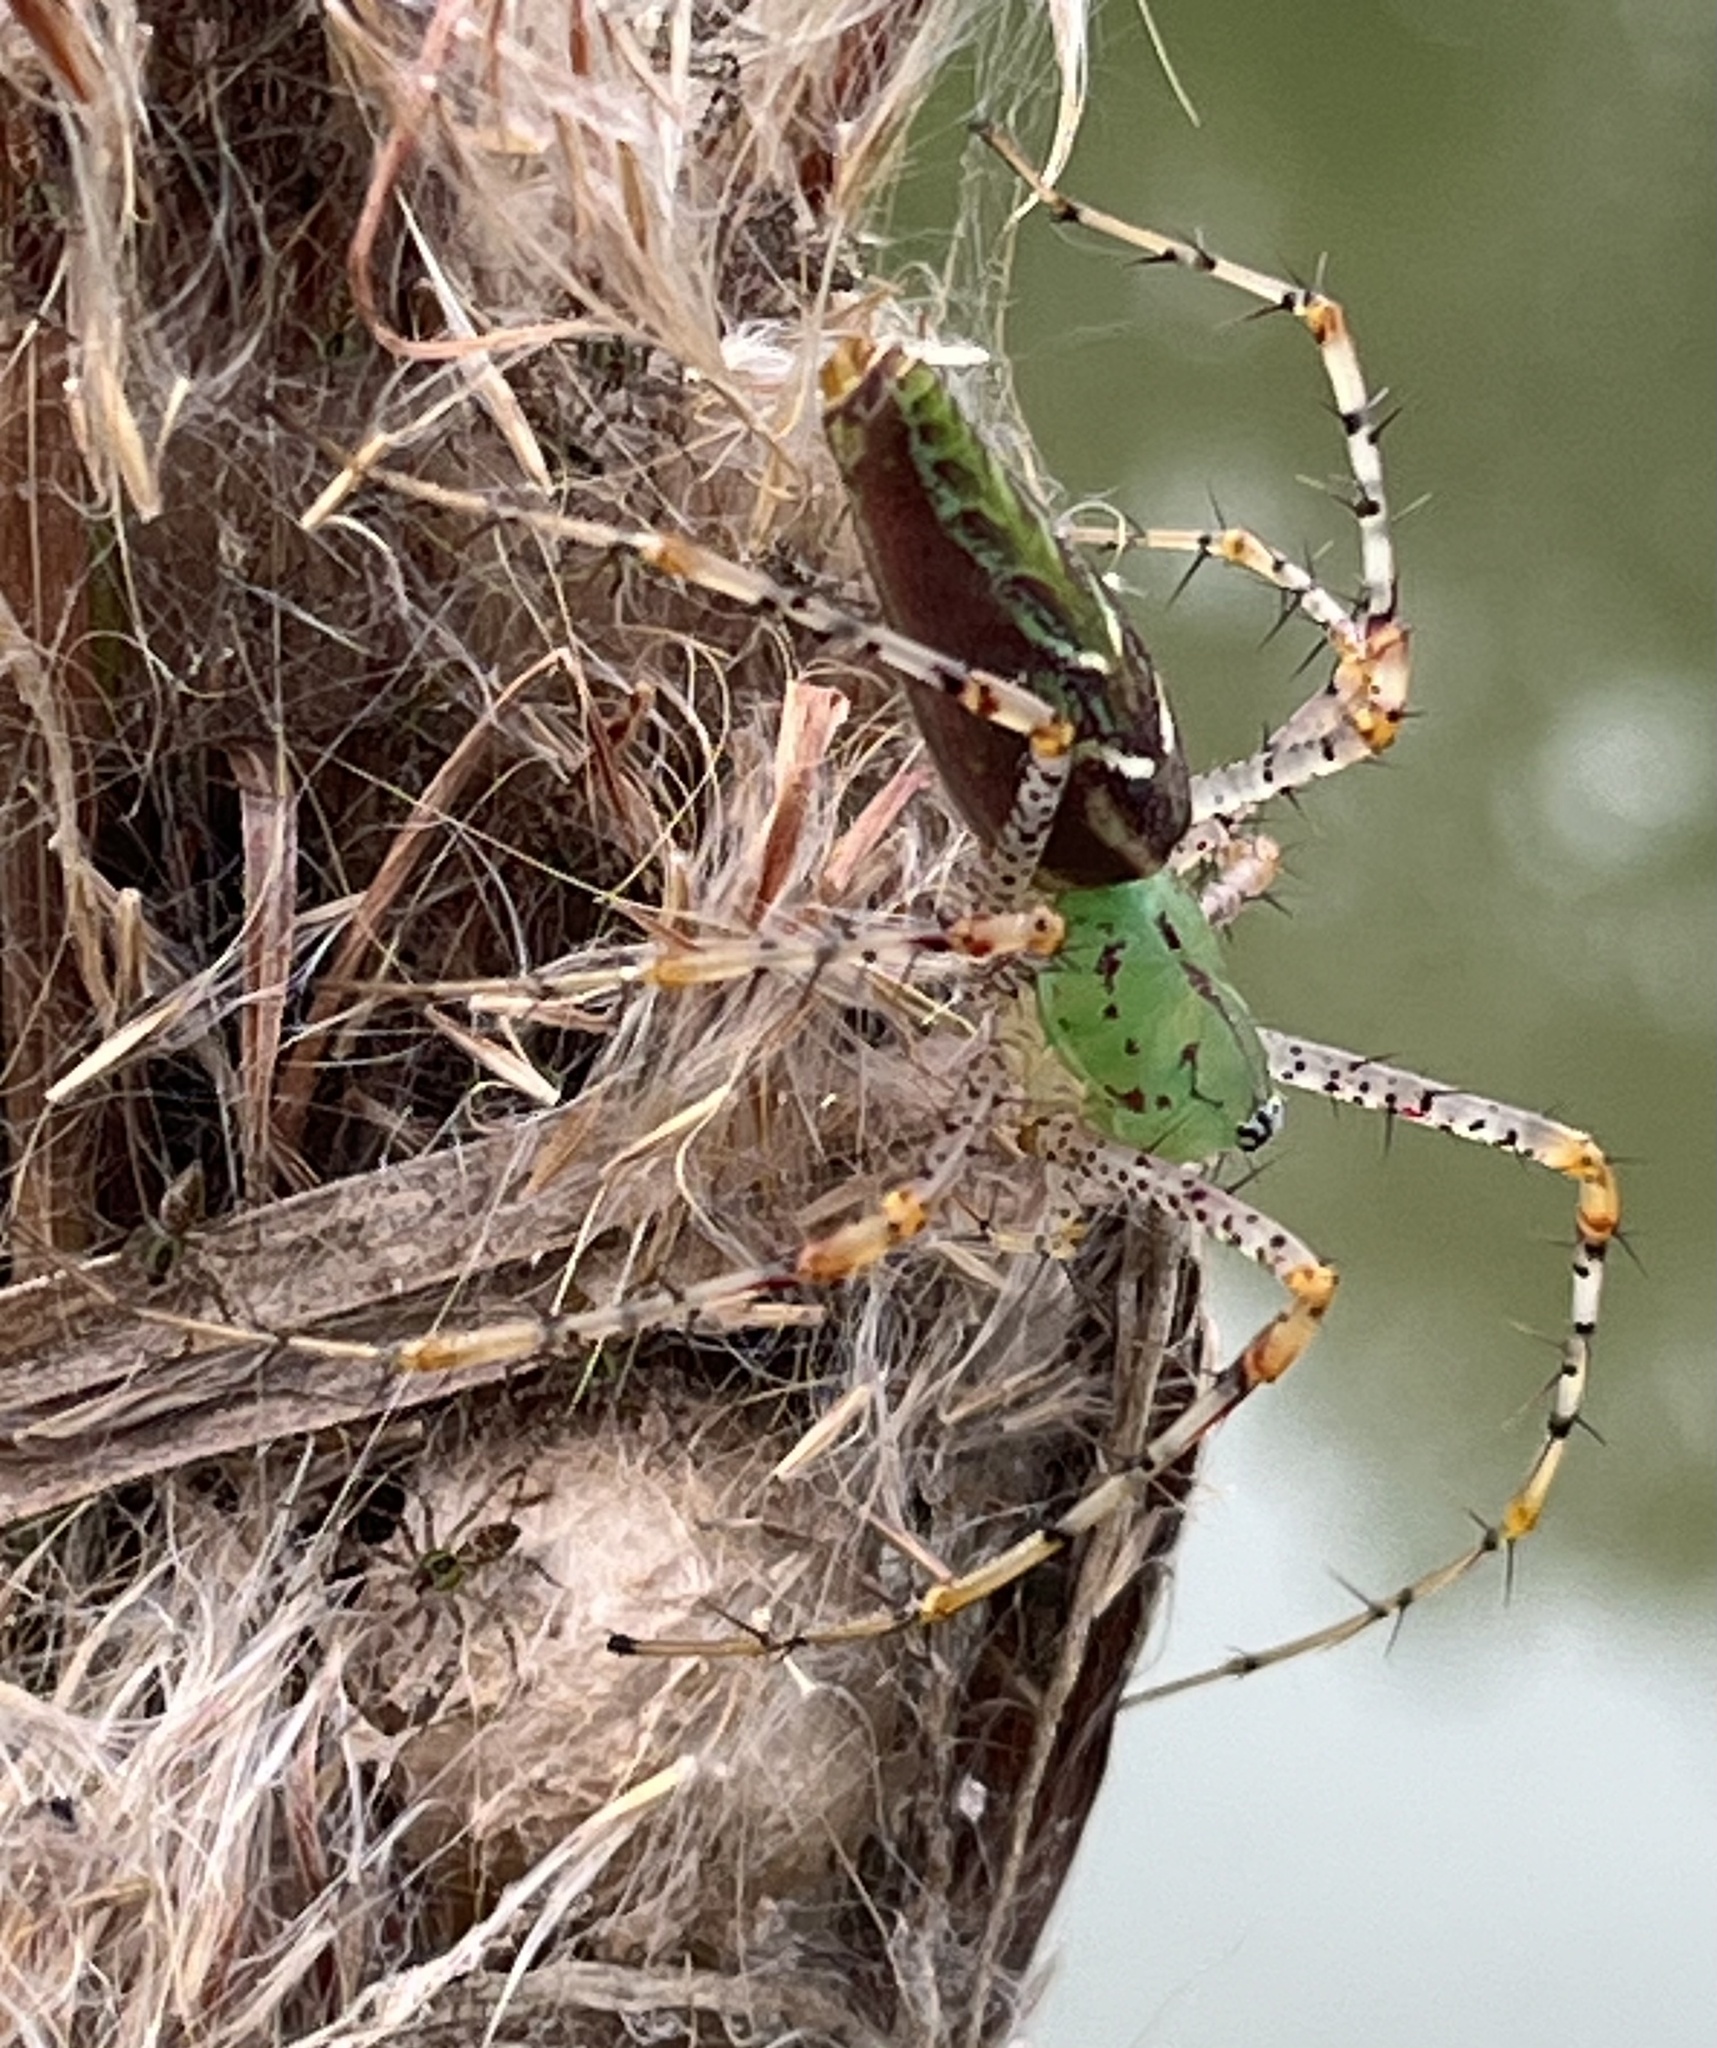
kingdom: Animalia
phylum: Arthropoda
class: Arachnida
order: Araneae
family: Oxyopidae
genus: Peucetia
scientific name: Peucetia viridans
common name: Lynx spiders
